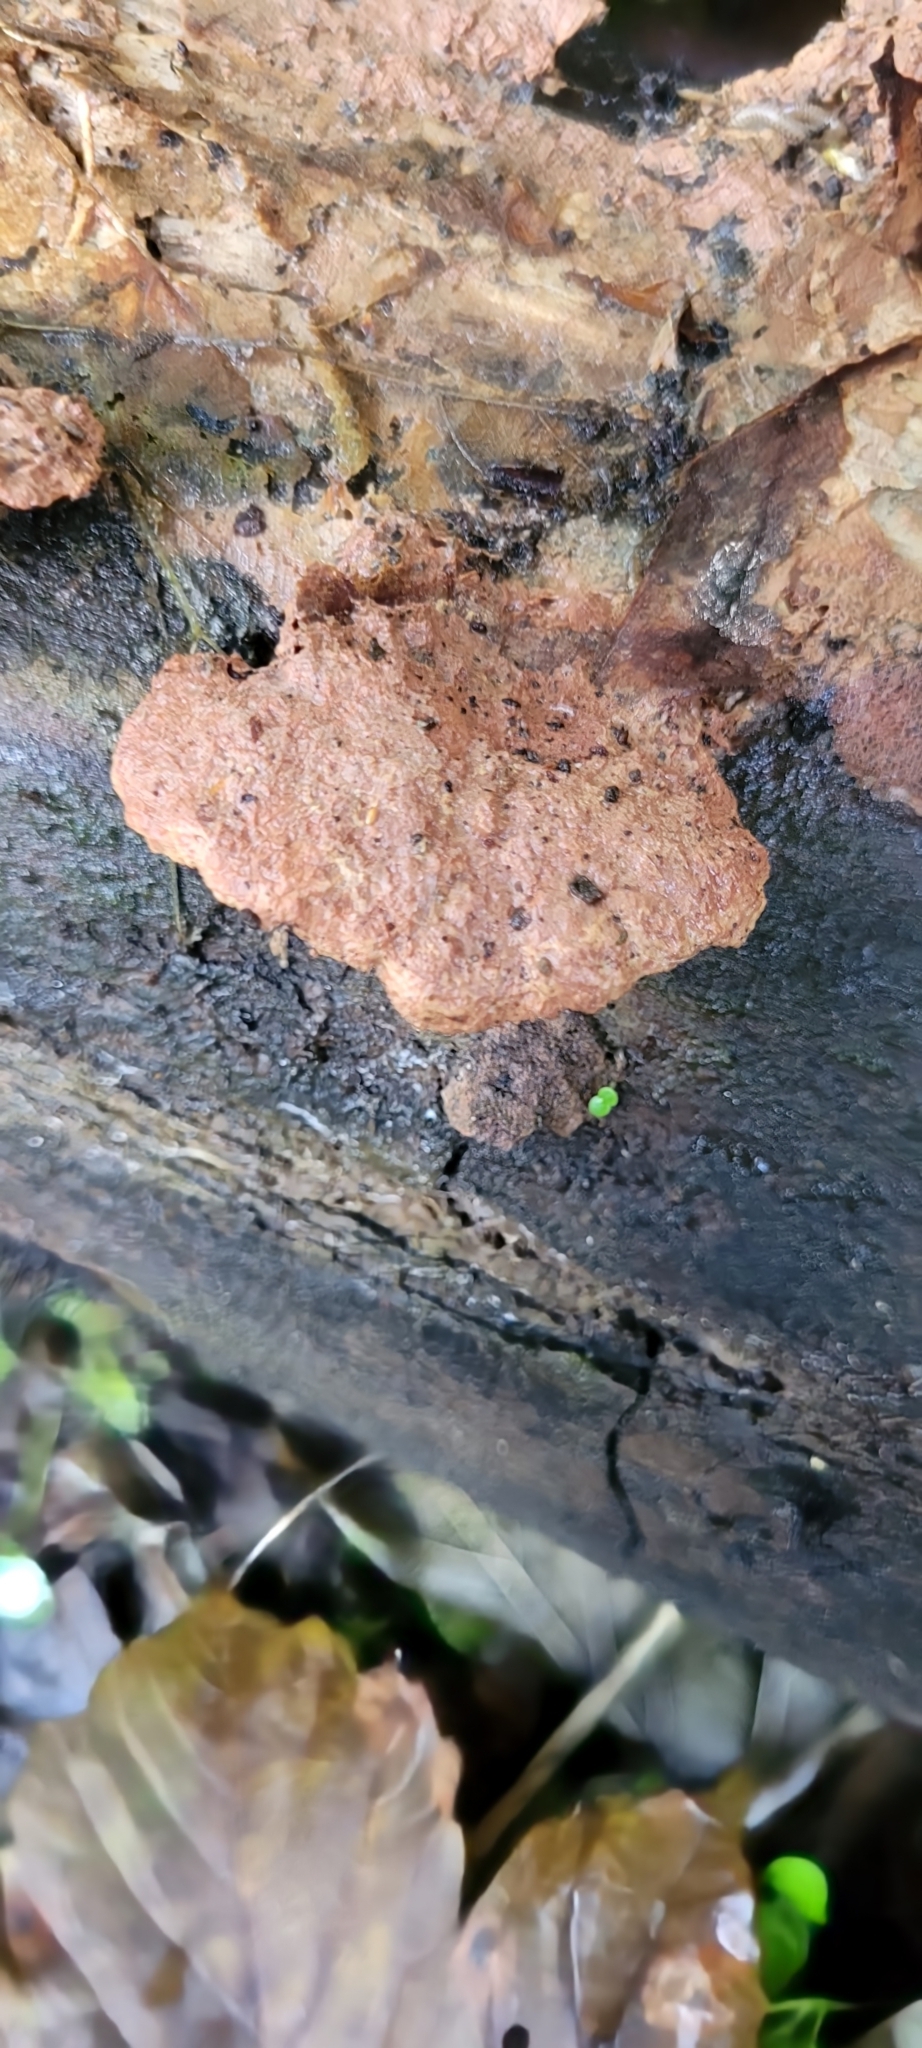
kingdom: Fungi
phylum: Basidiomycota
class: Agaricomycetes
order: Polyporales
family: Phanerochaetaceae
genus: Hapalopilus
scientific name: Hapalopilus rutilans
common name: Tender nesting polypore
